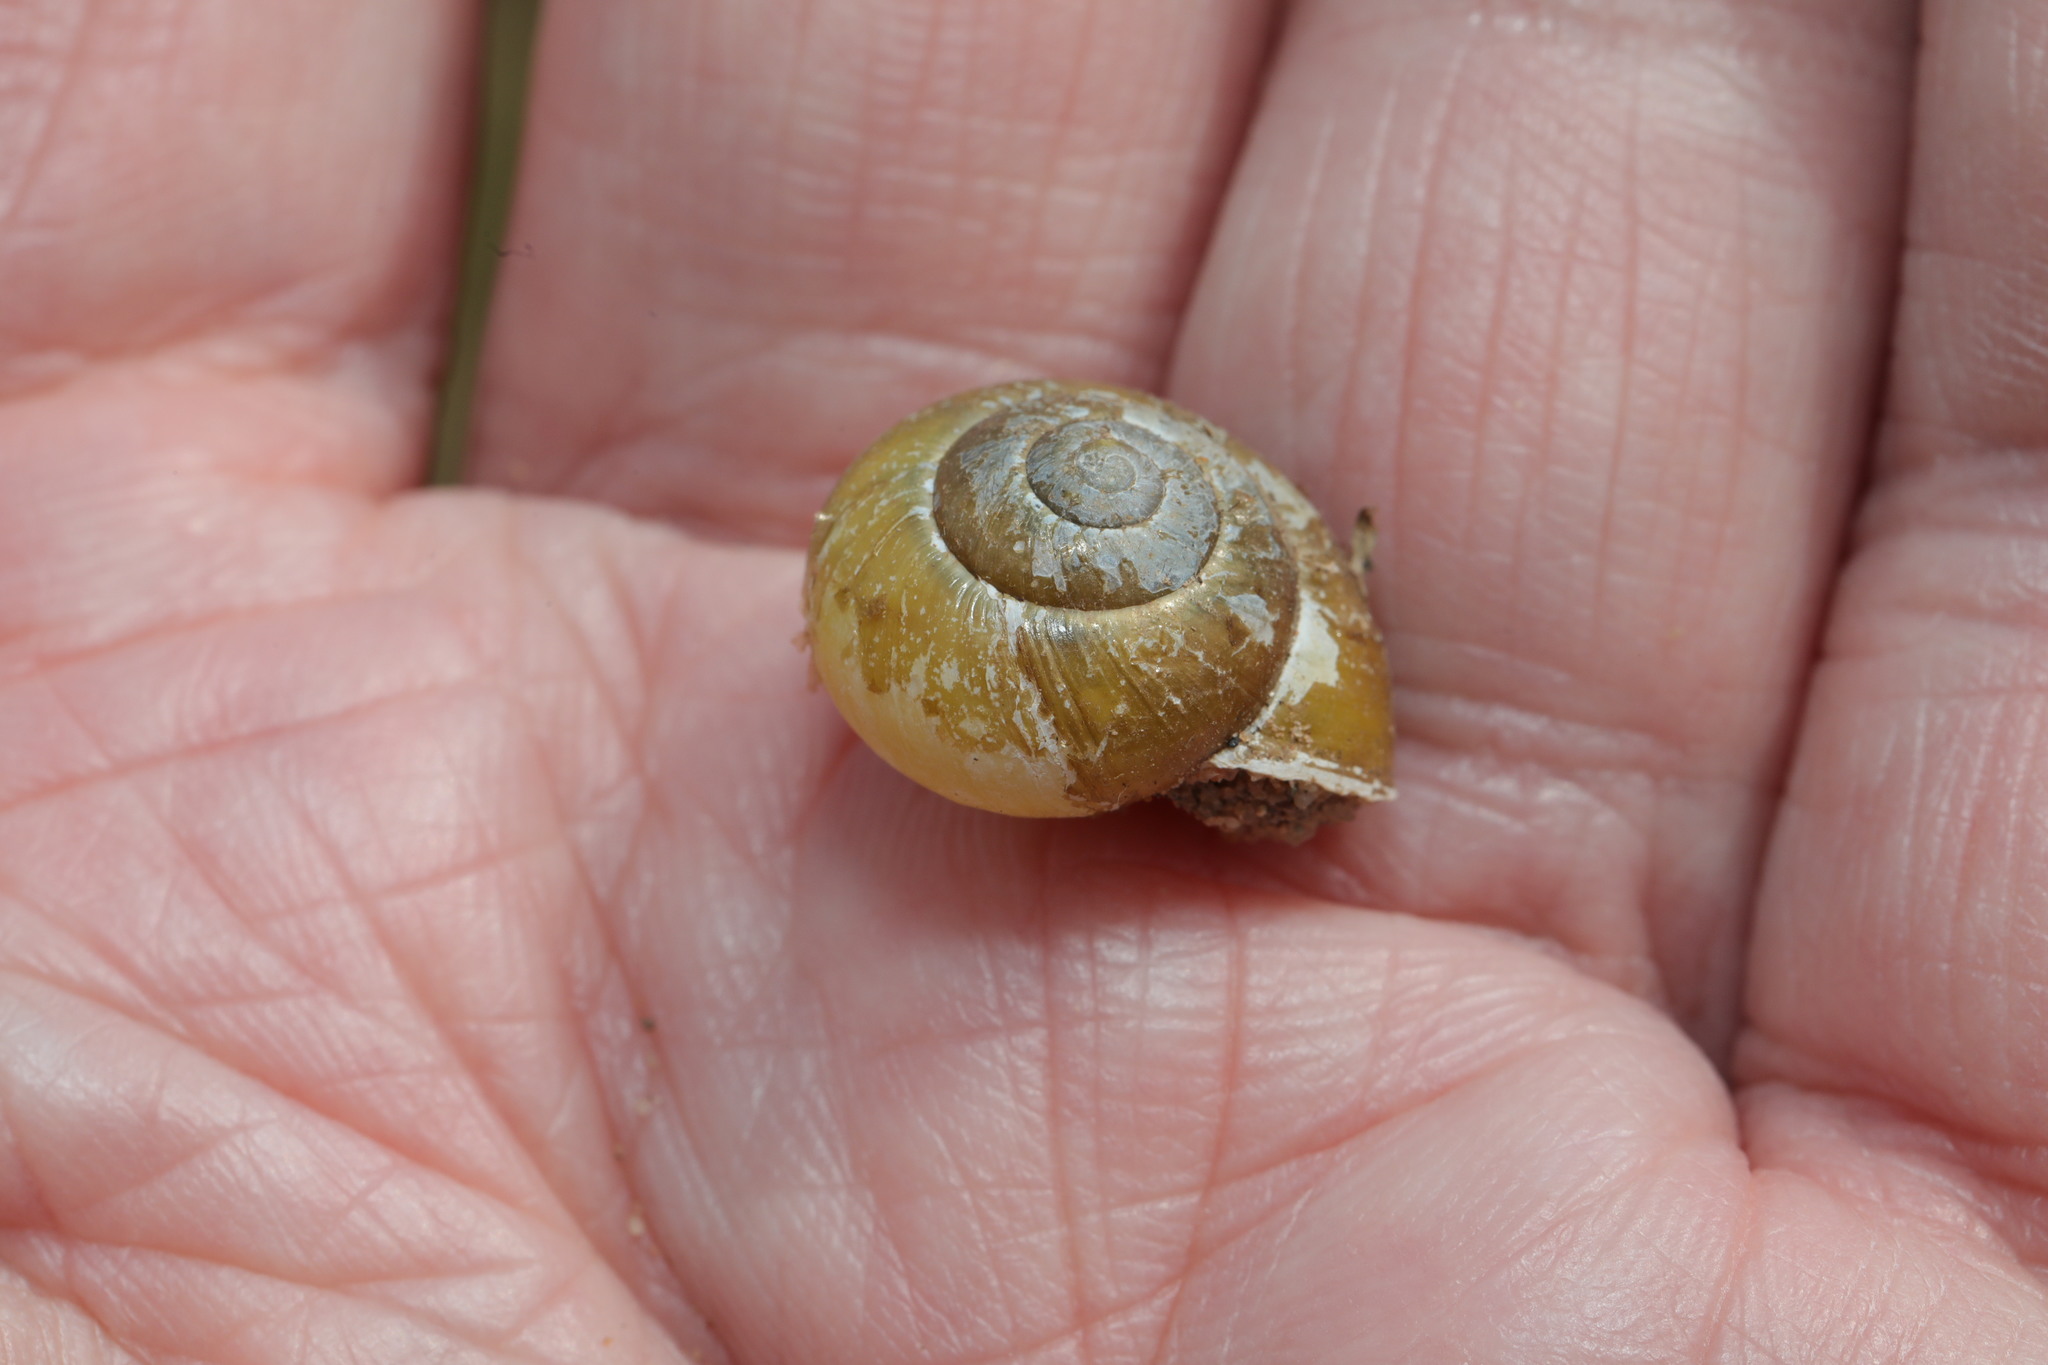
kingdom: Animalia
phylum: Mollusca
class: Gastropoda
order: Stylommatophora
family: Helicidae
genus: Cepaea
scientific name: Cepaea hortensis
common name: White-lip gardensnail
